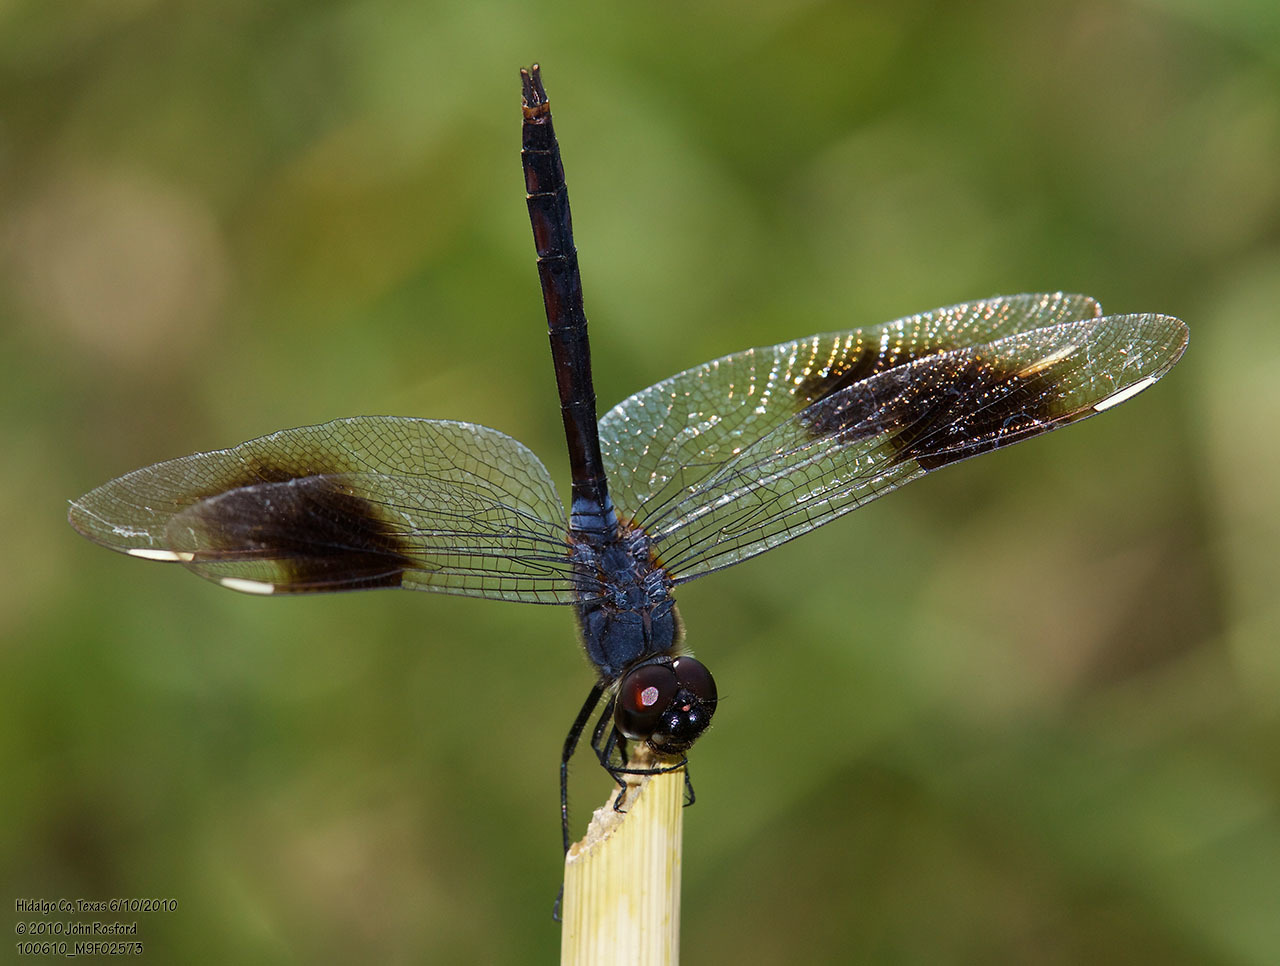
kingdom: Animalia
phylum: Arthropoda
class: Insecta
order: Odonata
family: Libellulidae
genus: Brachymesia
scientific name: Brachymesia gravida
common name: Four-spotted pennant
